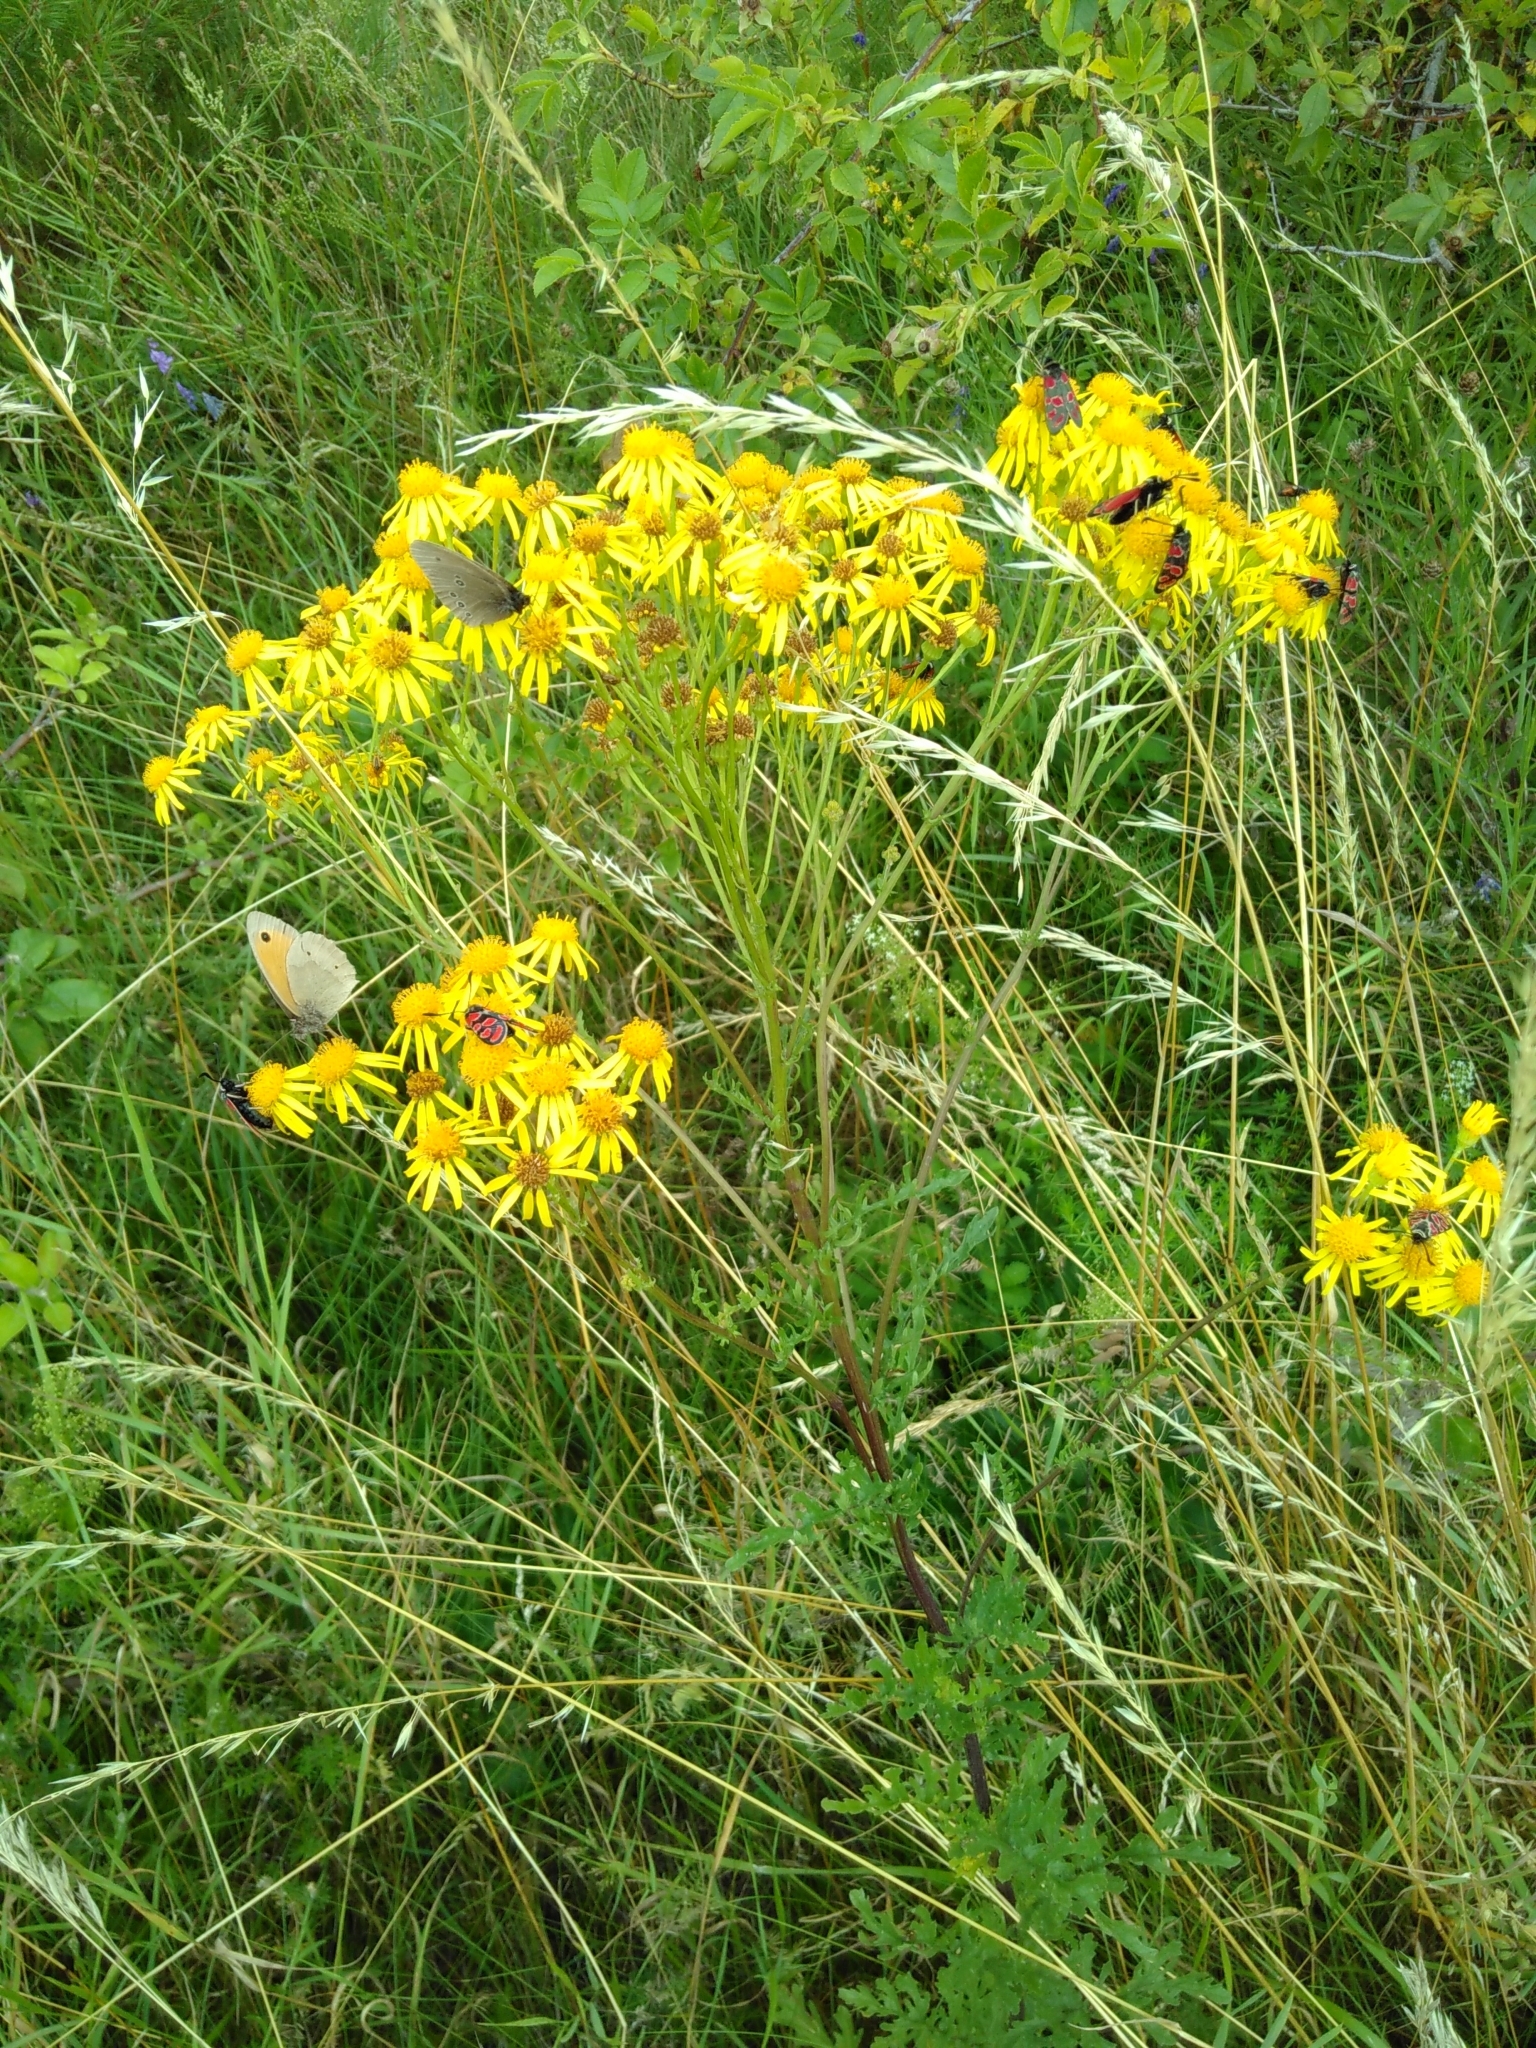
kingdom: Animalia
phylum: Arthropoda
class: Insecta
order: Lepidoptera
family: Zygaenidae
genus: Zygaena
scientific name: Zygaena carniolica
